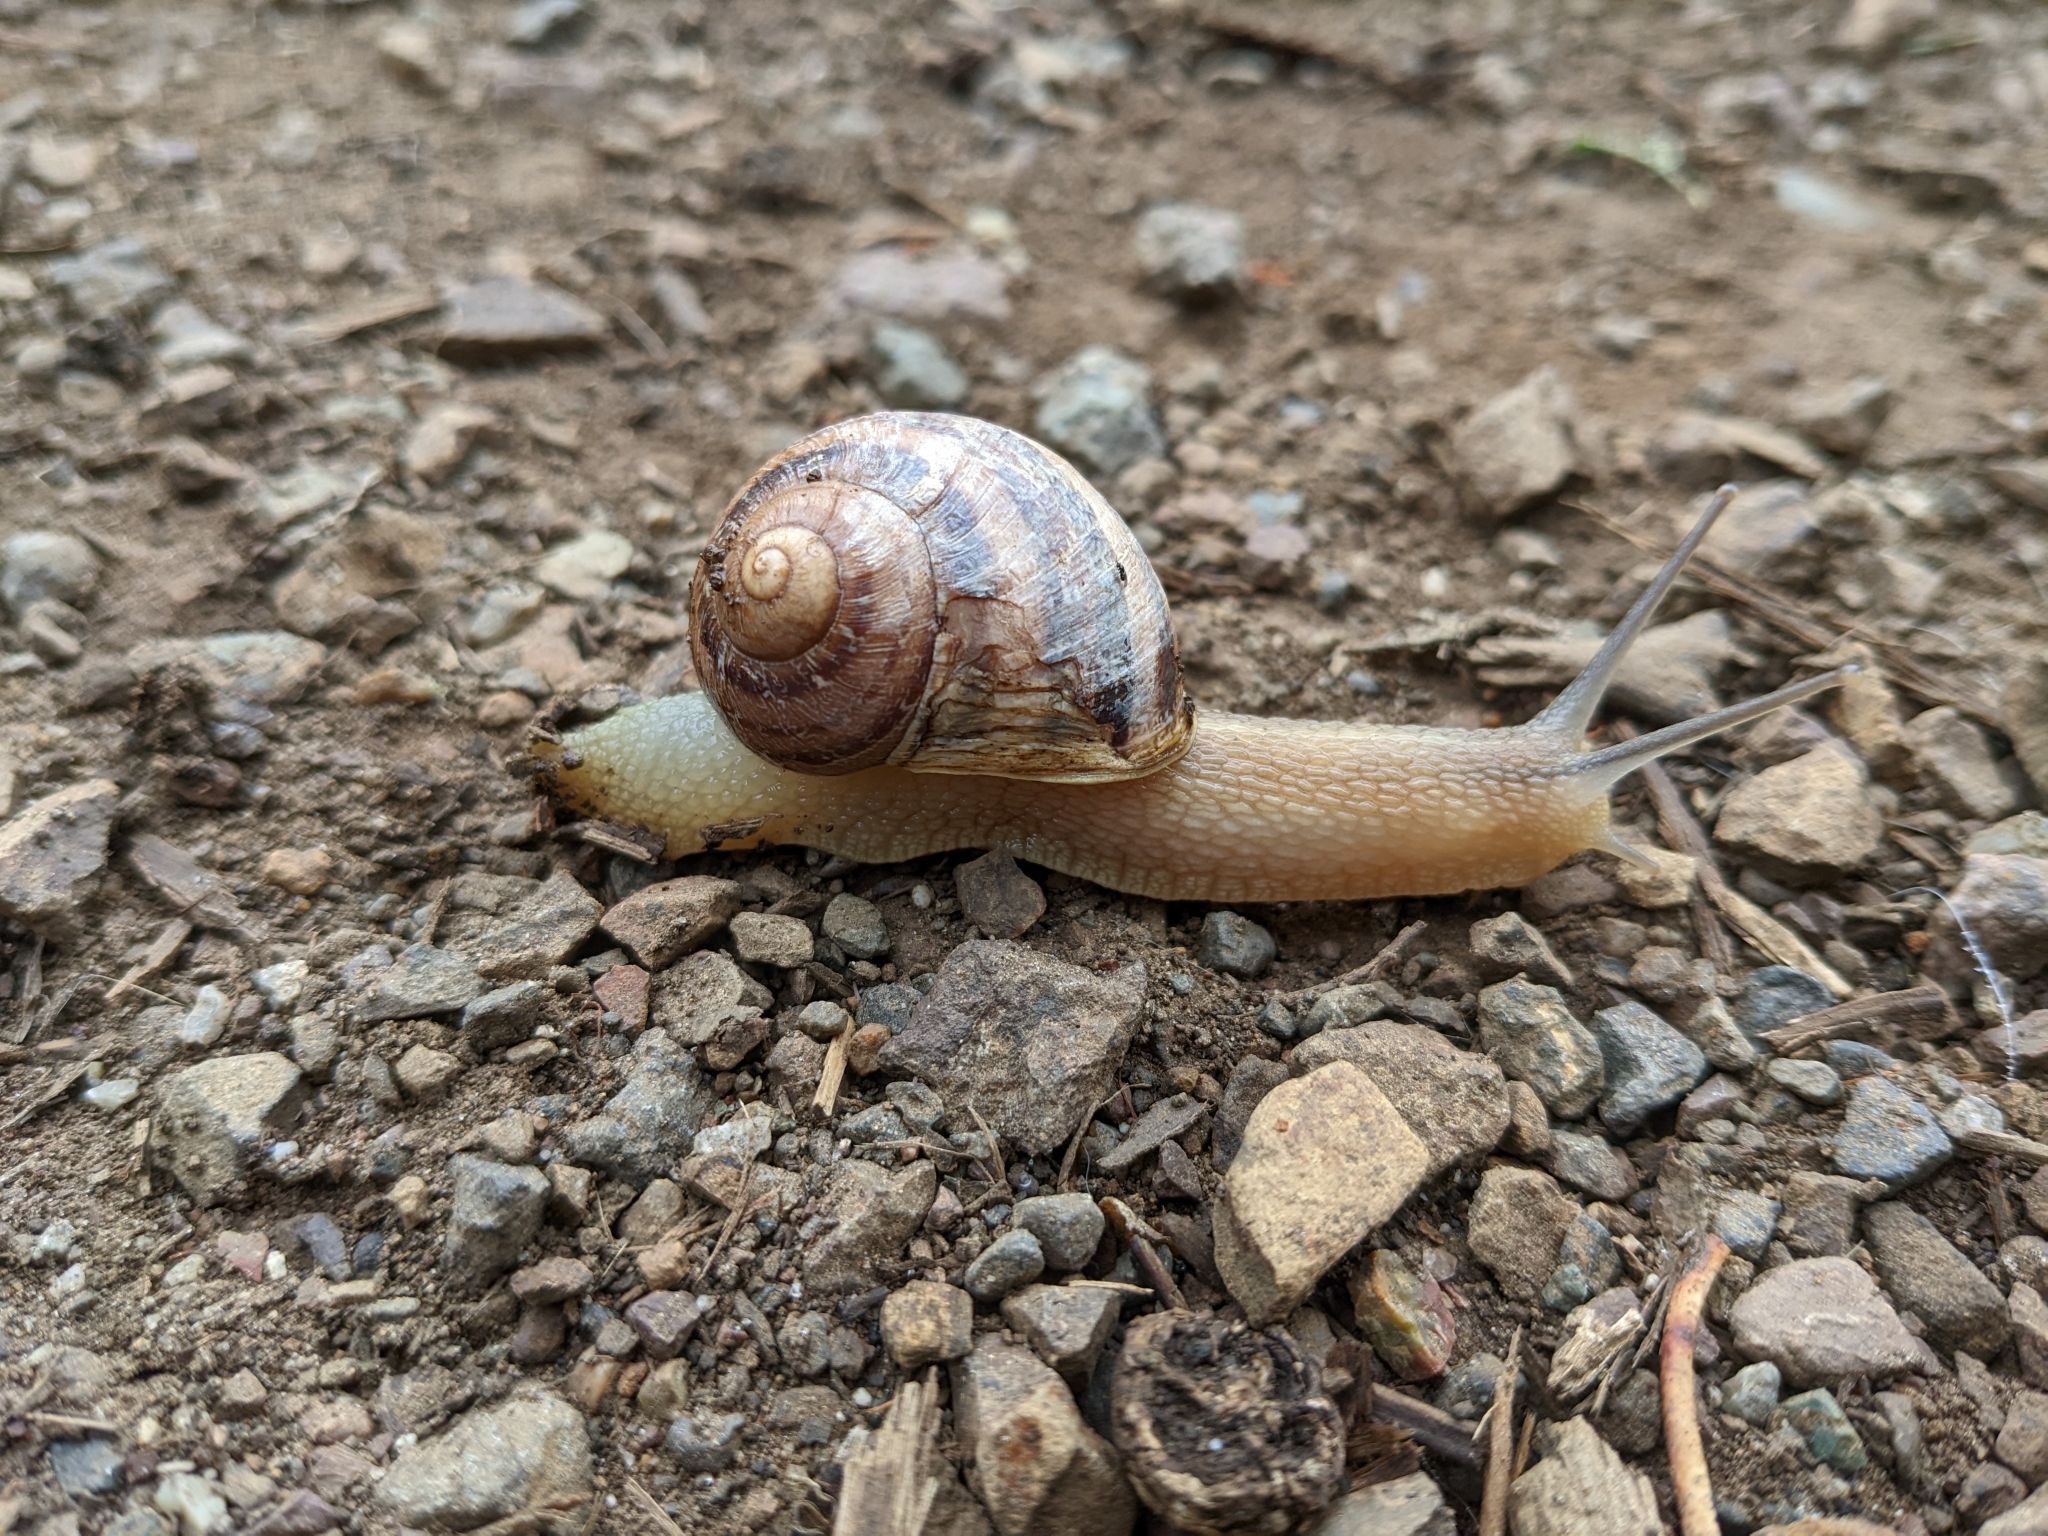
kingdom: Animalia
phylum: Mollusca
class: Gastropoda
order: Stylommatophora
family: Helicidae
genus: Cornu
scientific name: Cornu aspersum
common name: Brown garden snail
